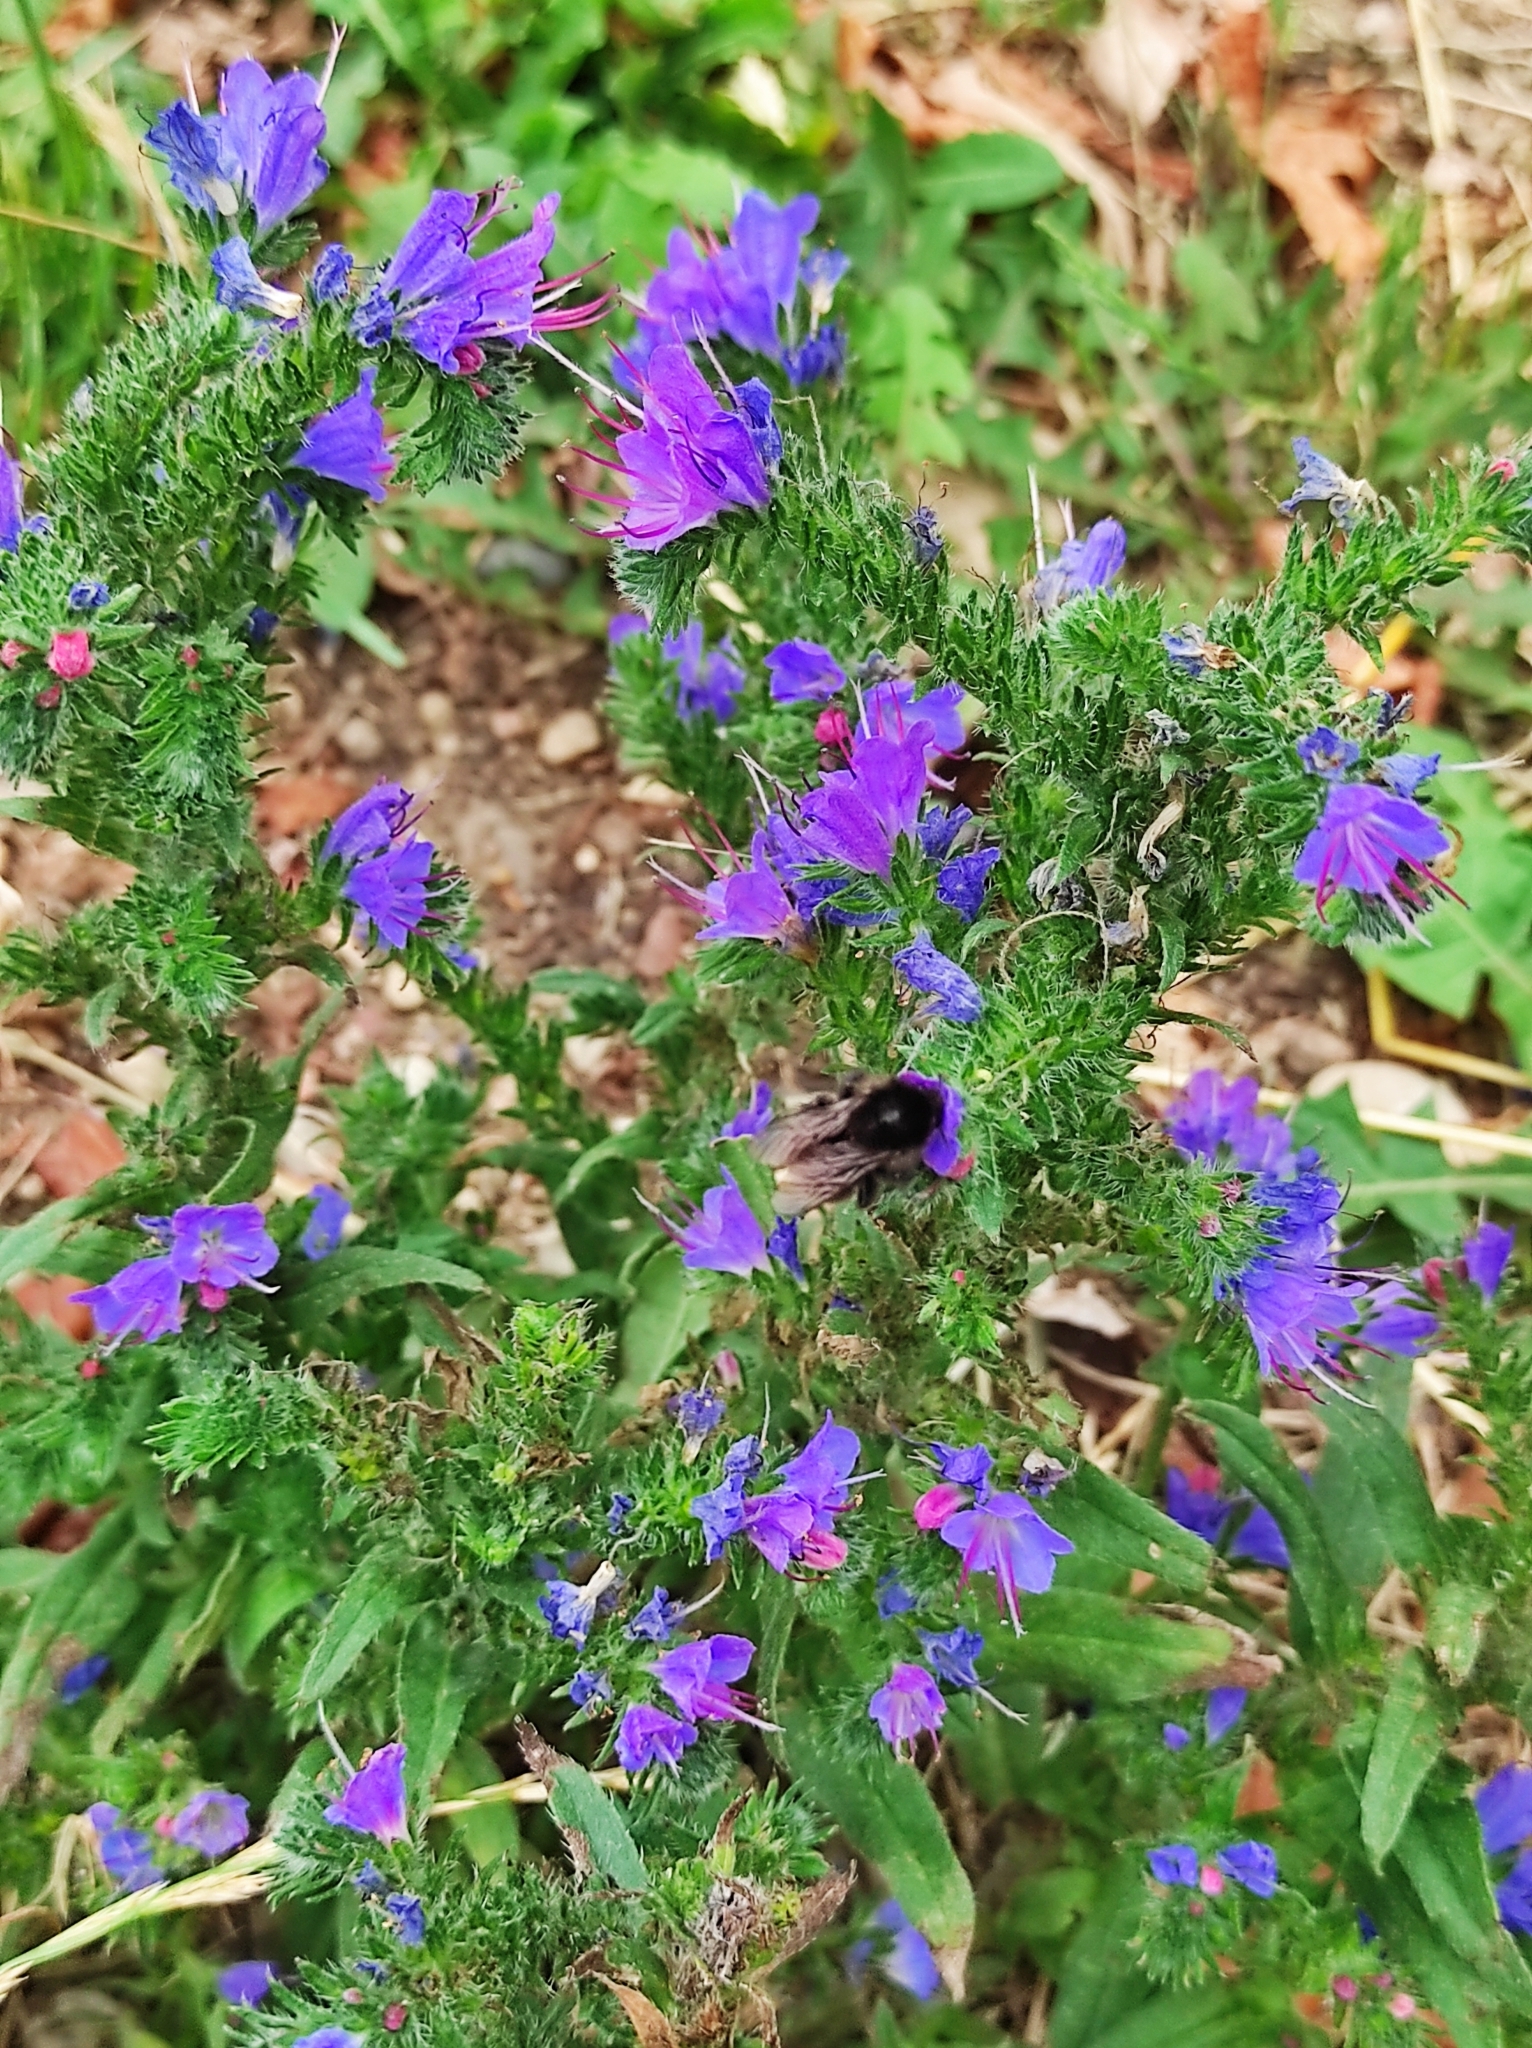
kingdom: Animalia
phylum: Arthropoda
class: Insecta
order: Hymenoptera
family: Apidae
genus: Bombus
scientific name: Bombus
